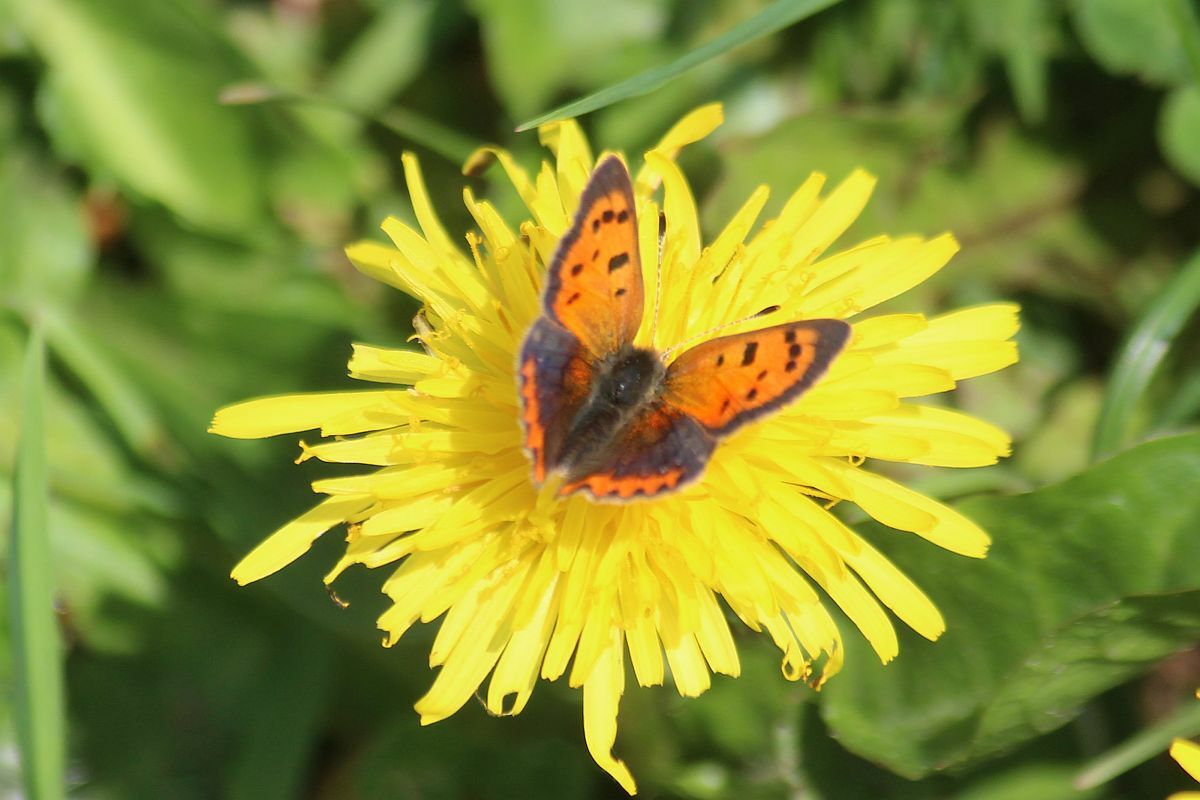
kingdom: Animalia
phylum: Arthropoda
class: Insecta
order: Lepidoptera
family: Lycaenidae
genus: Lycaena
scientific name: Lycaena phlaeas
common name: Small copper
